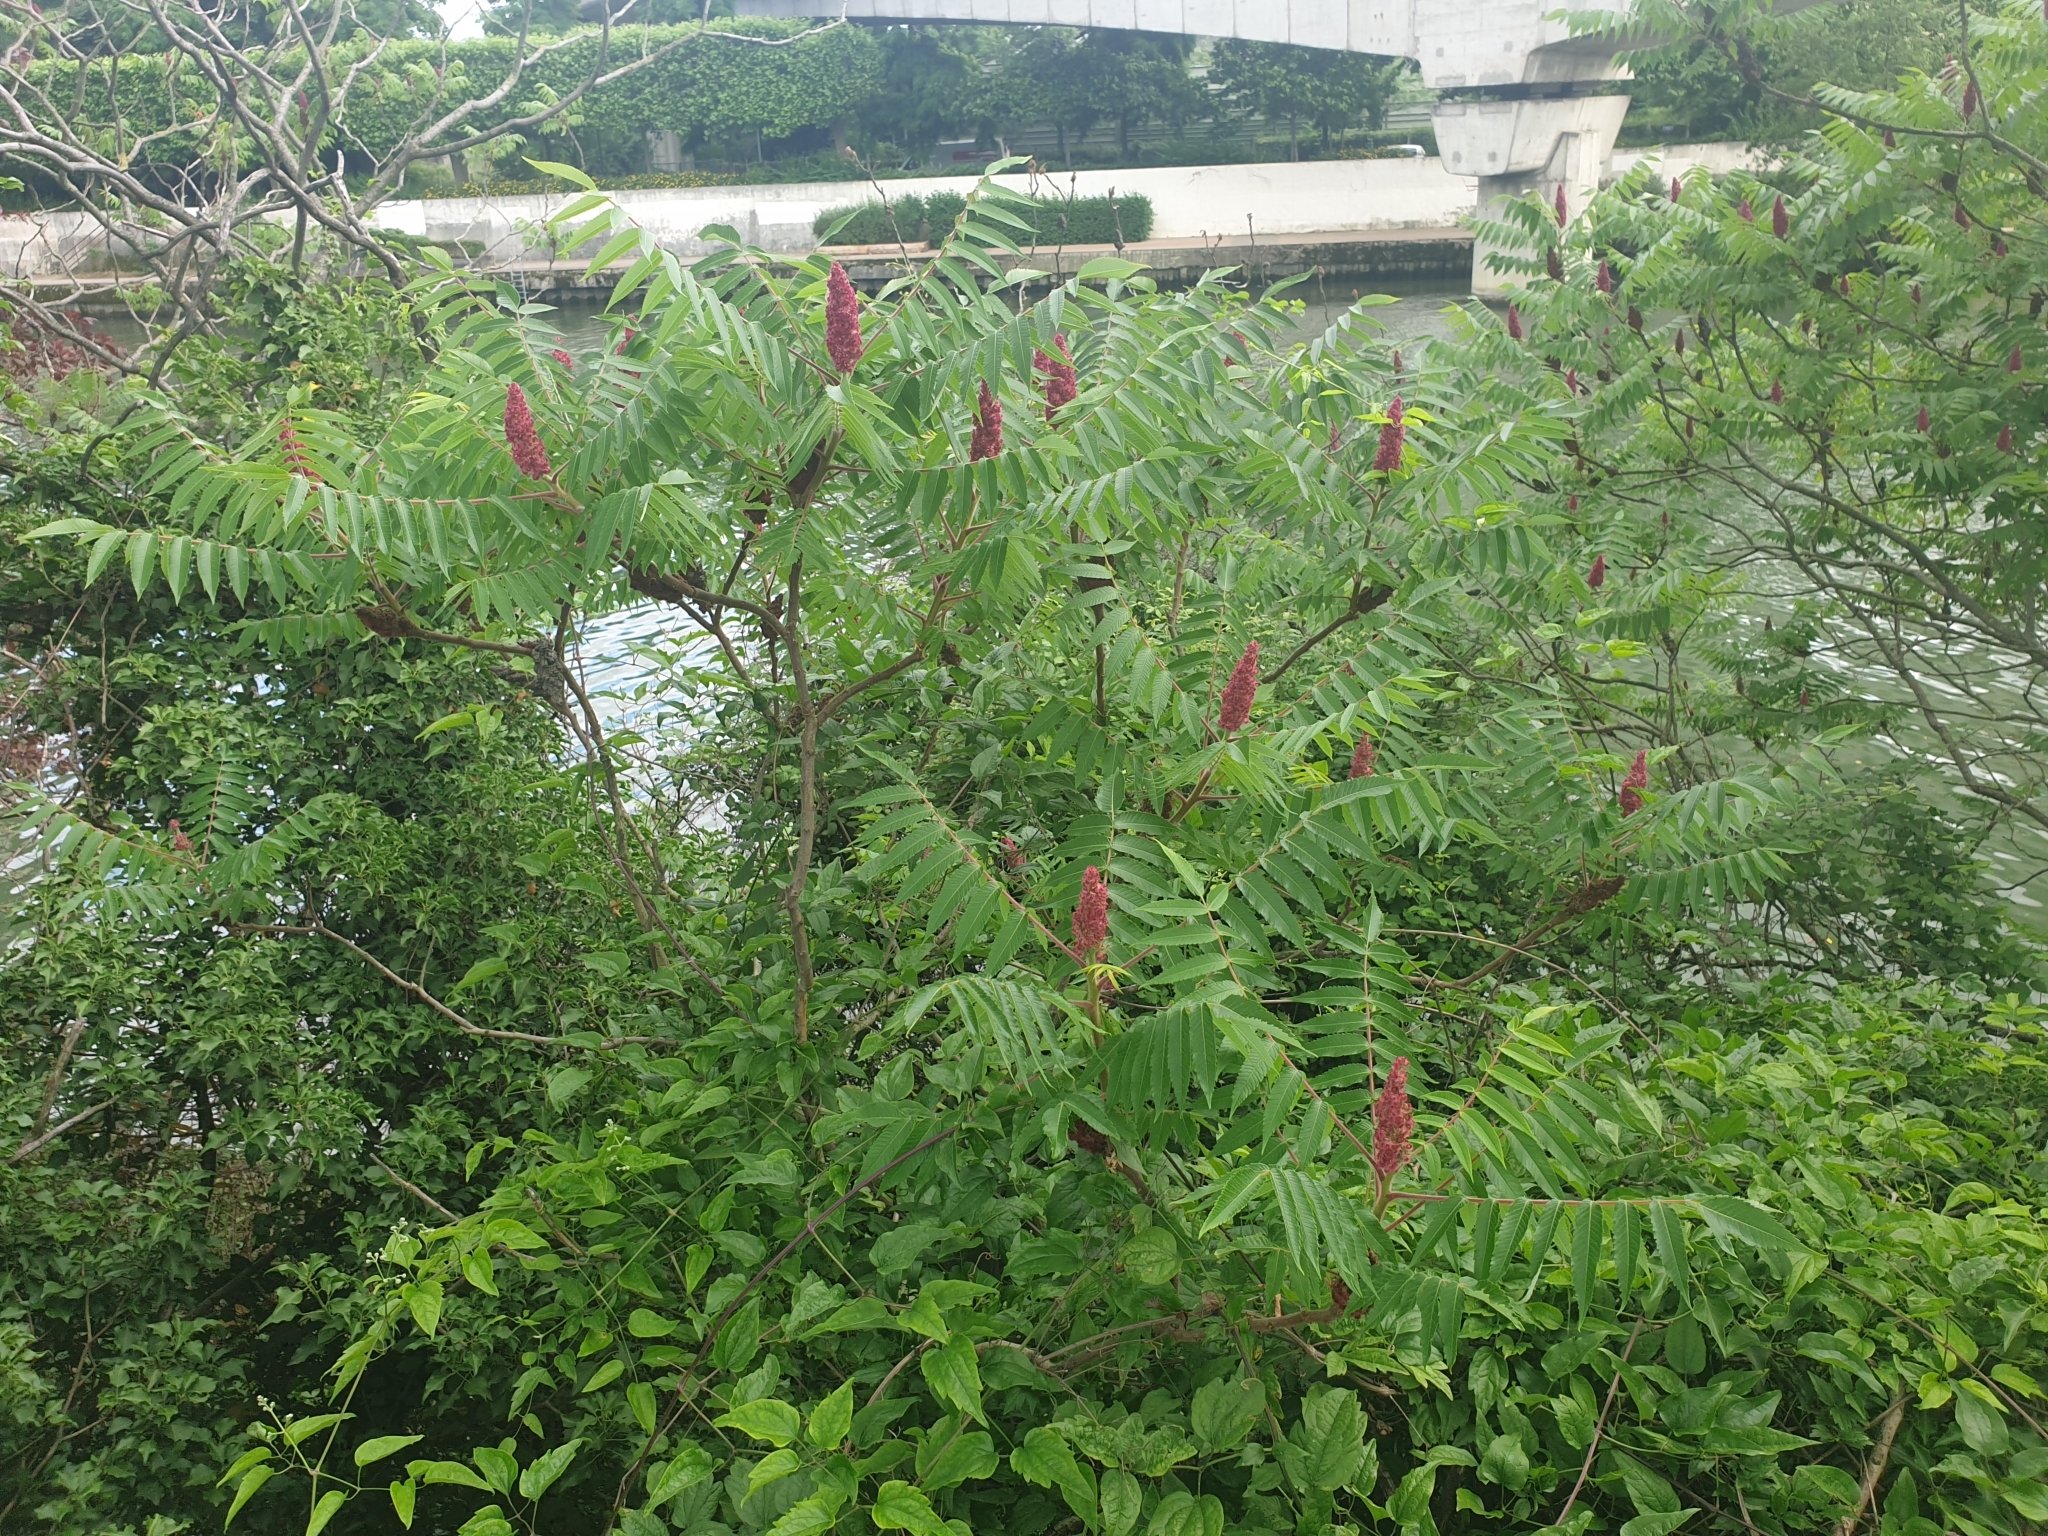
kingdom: Plantae
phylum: Tracheophyta
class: Magnoliopsida
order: Sapindales
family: Anacardiaceae
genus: Rhus
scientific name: Rhus typhina
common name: Staghorn sumac
